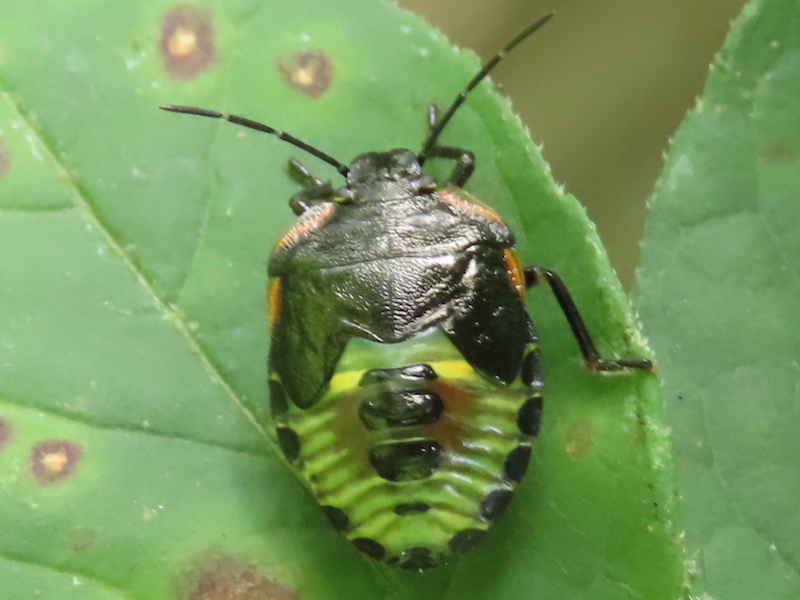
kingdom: Animalia
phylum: Arthropoda
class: Insecta
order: Hemiptera
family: Pentatomidae
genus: Chinavia
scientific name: Chinavia hilaris
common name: Green stink bug
